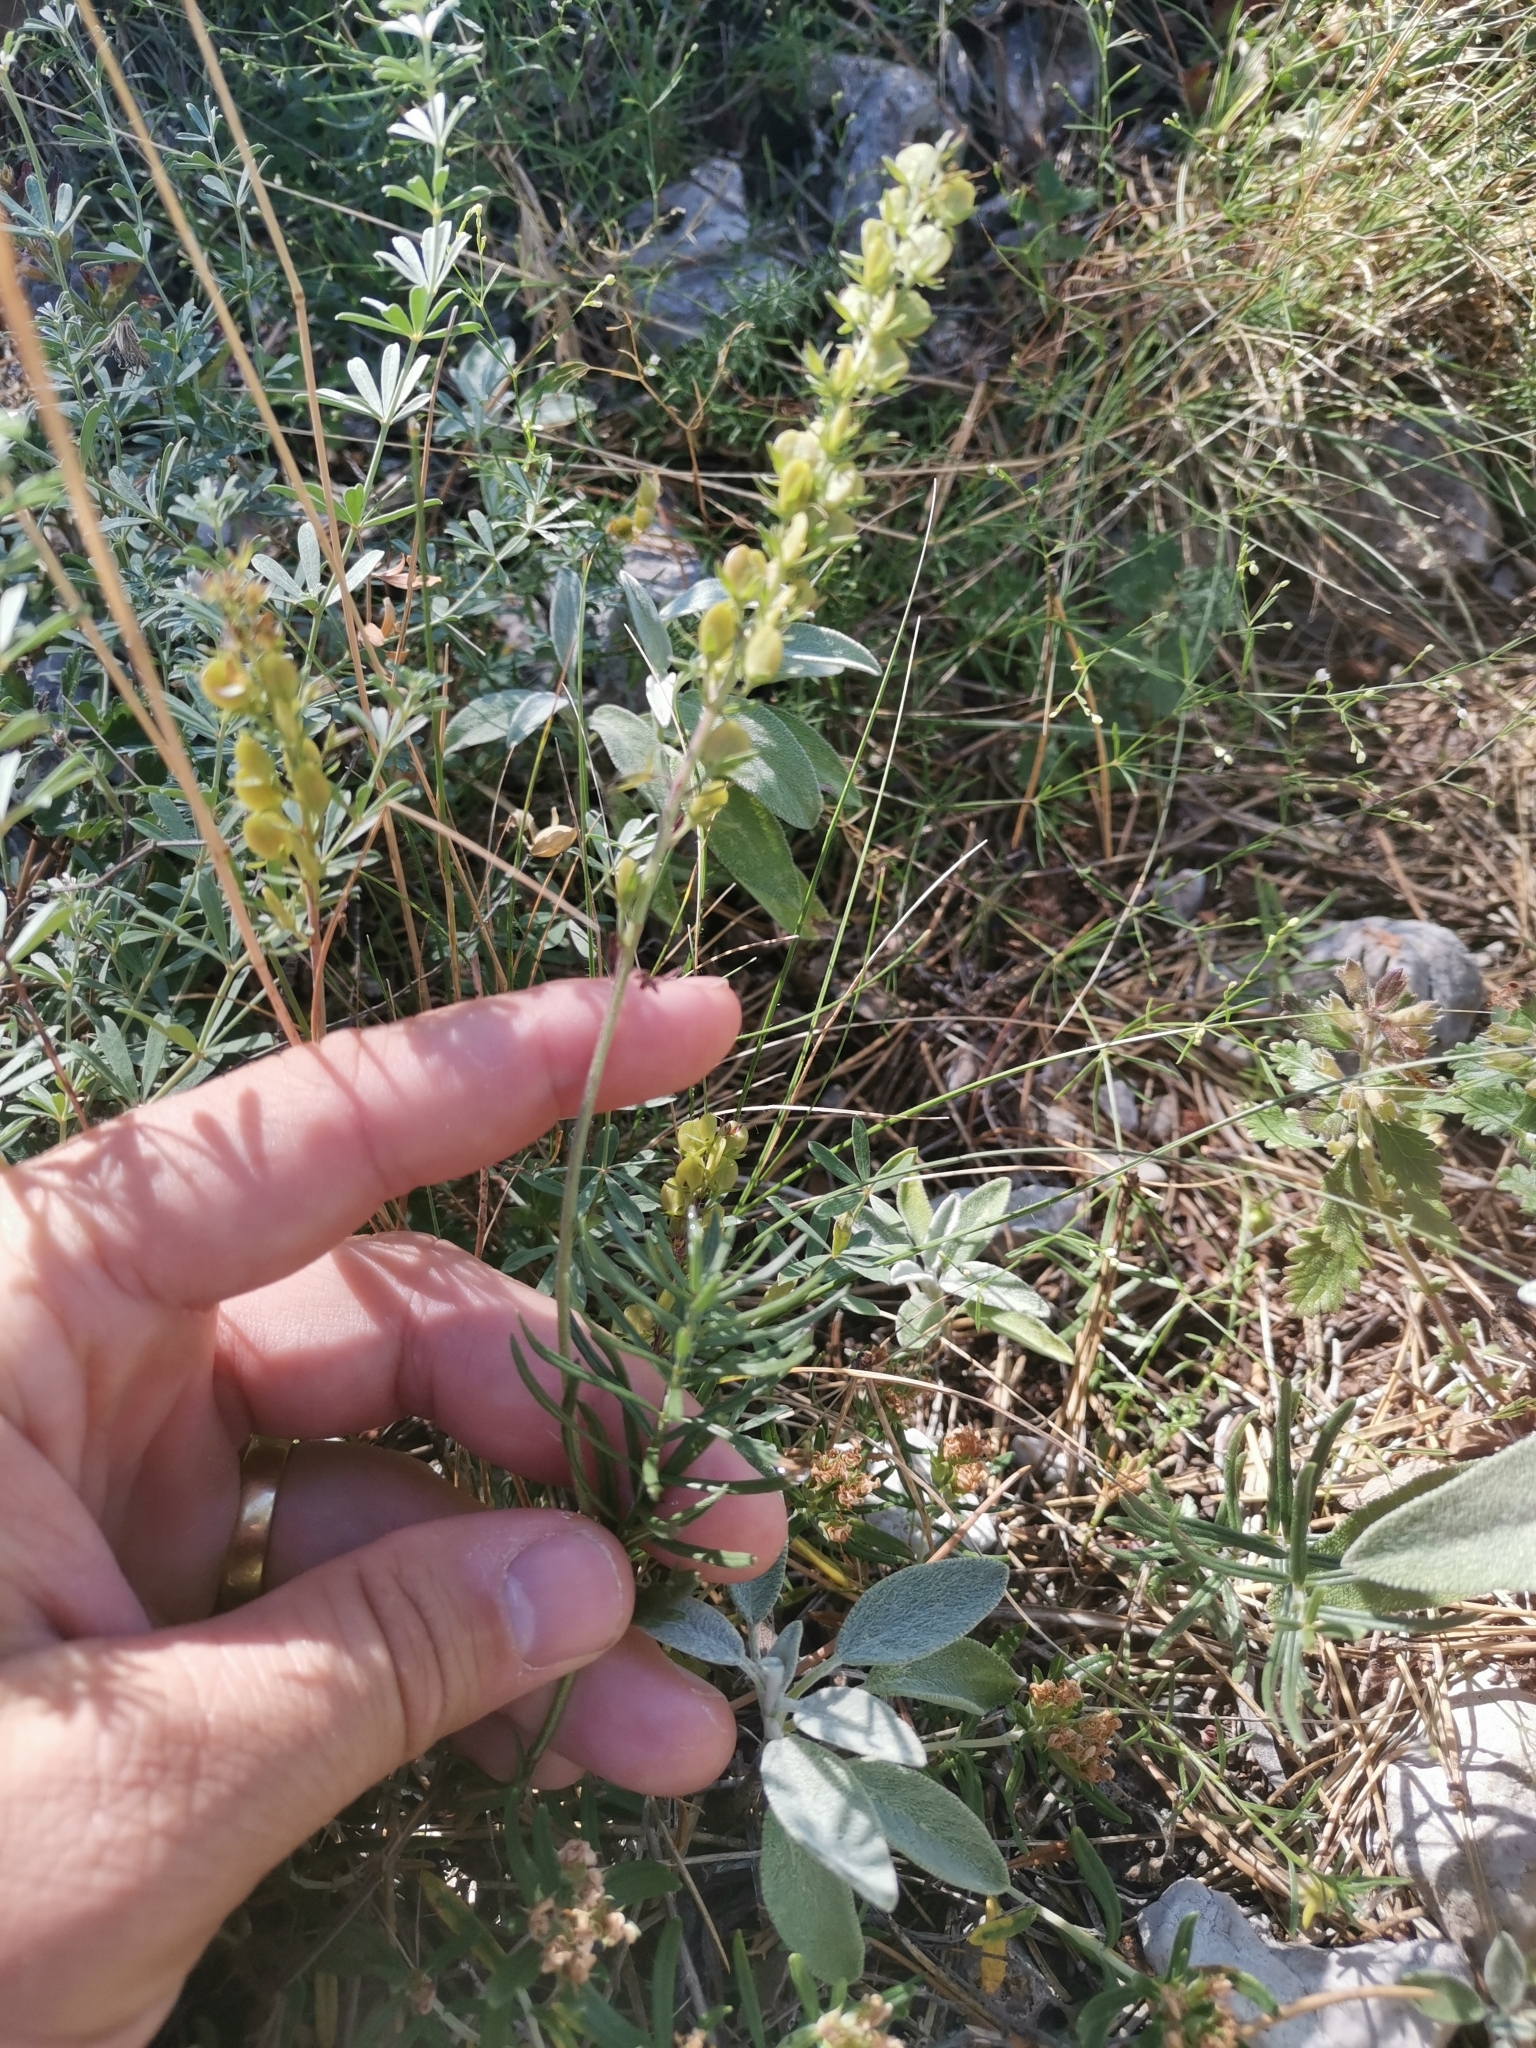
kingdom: Plantae
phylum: Tracheophyta
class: Magnoliopsida
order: Lamiales
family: Plantaginaceae
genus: Veronica
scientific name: Veronica orbiculata
